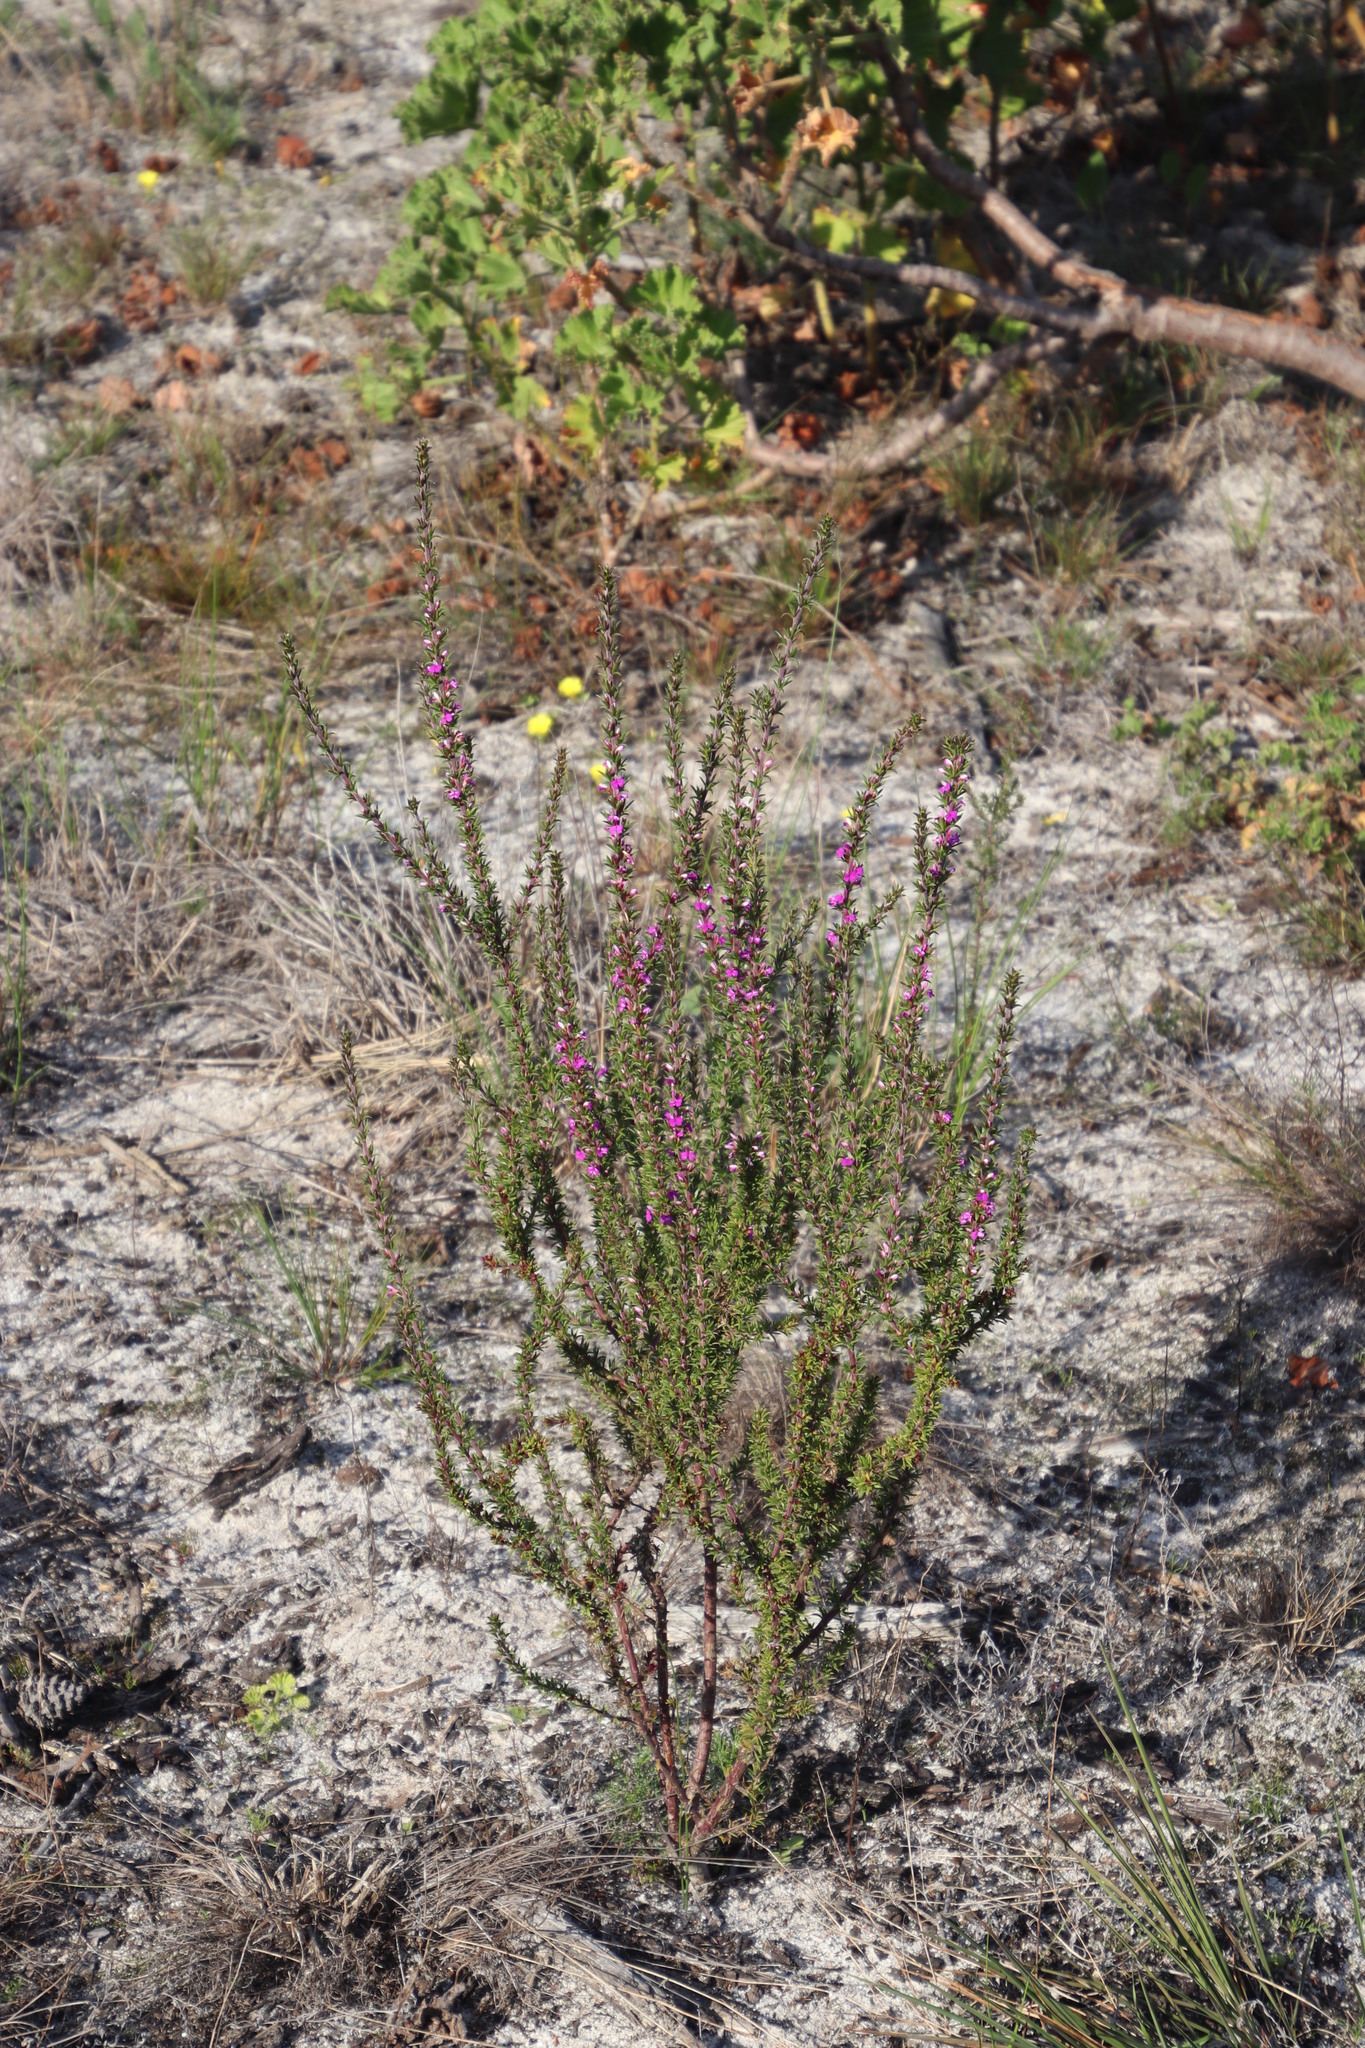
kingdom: Plantae
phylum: Tracheophyta
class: Magnoliopsida
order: Fabales
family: Polygalaceae
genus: Muraltia
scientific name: Muraltia heisteria
